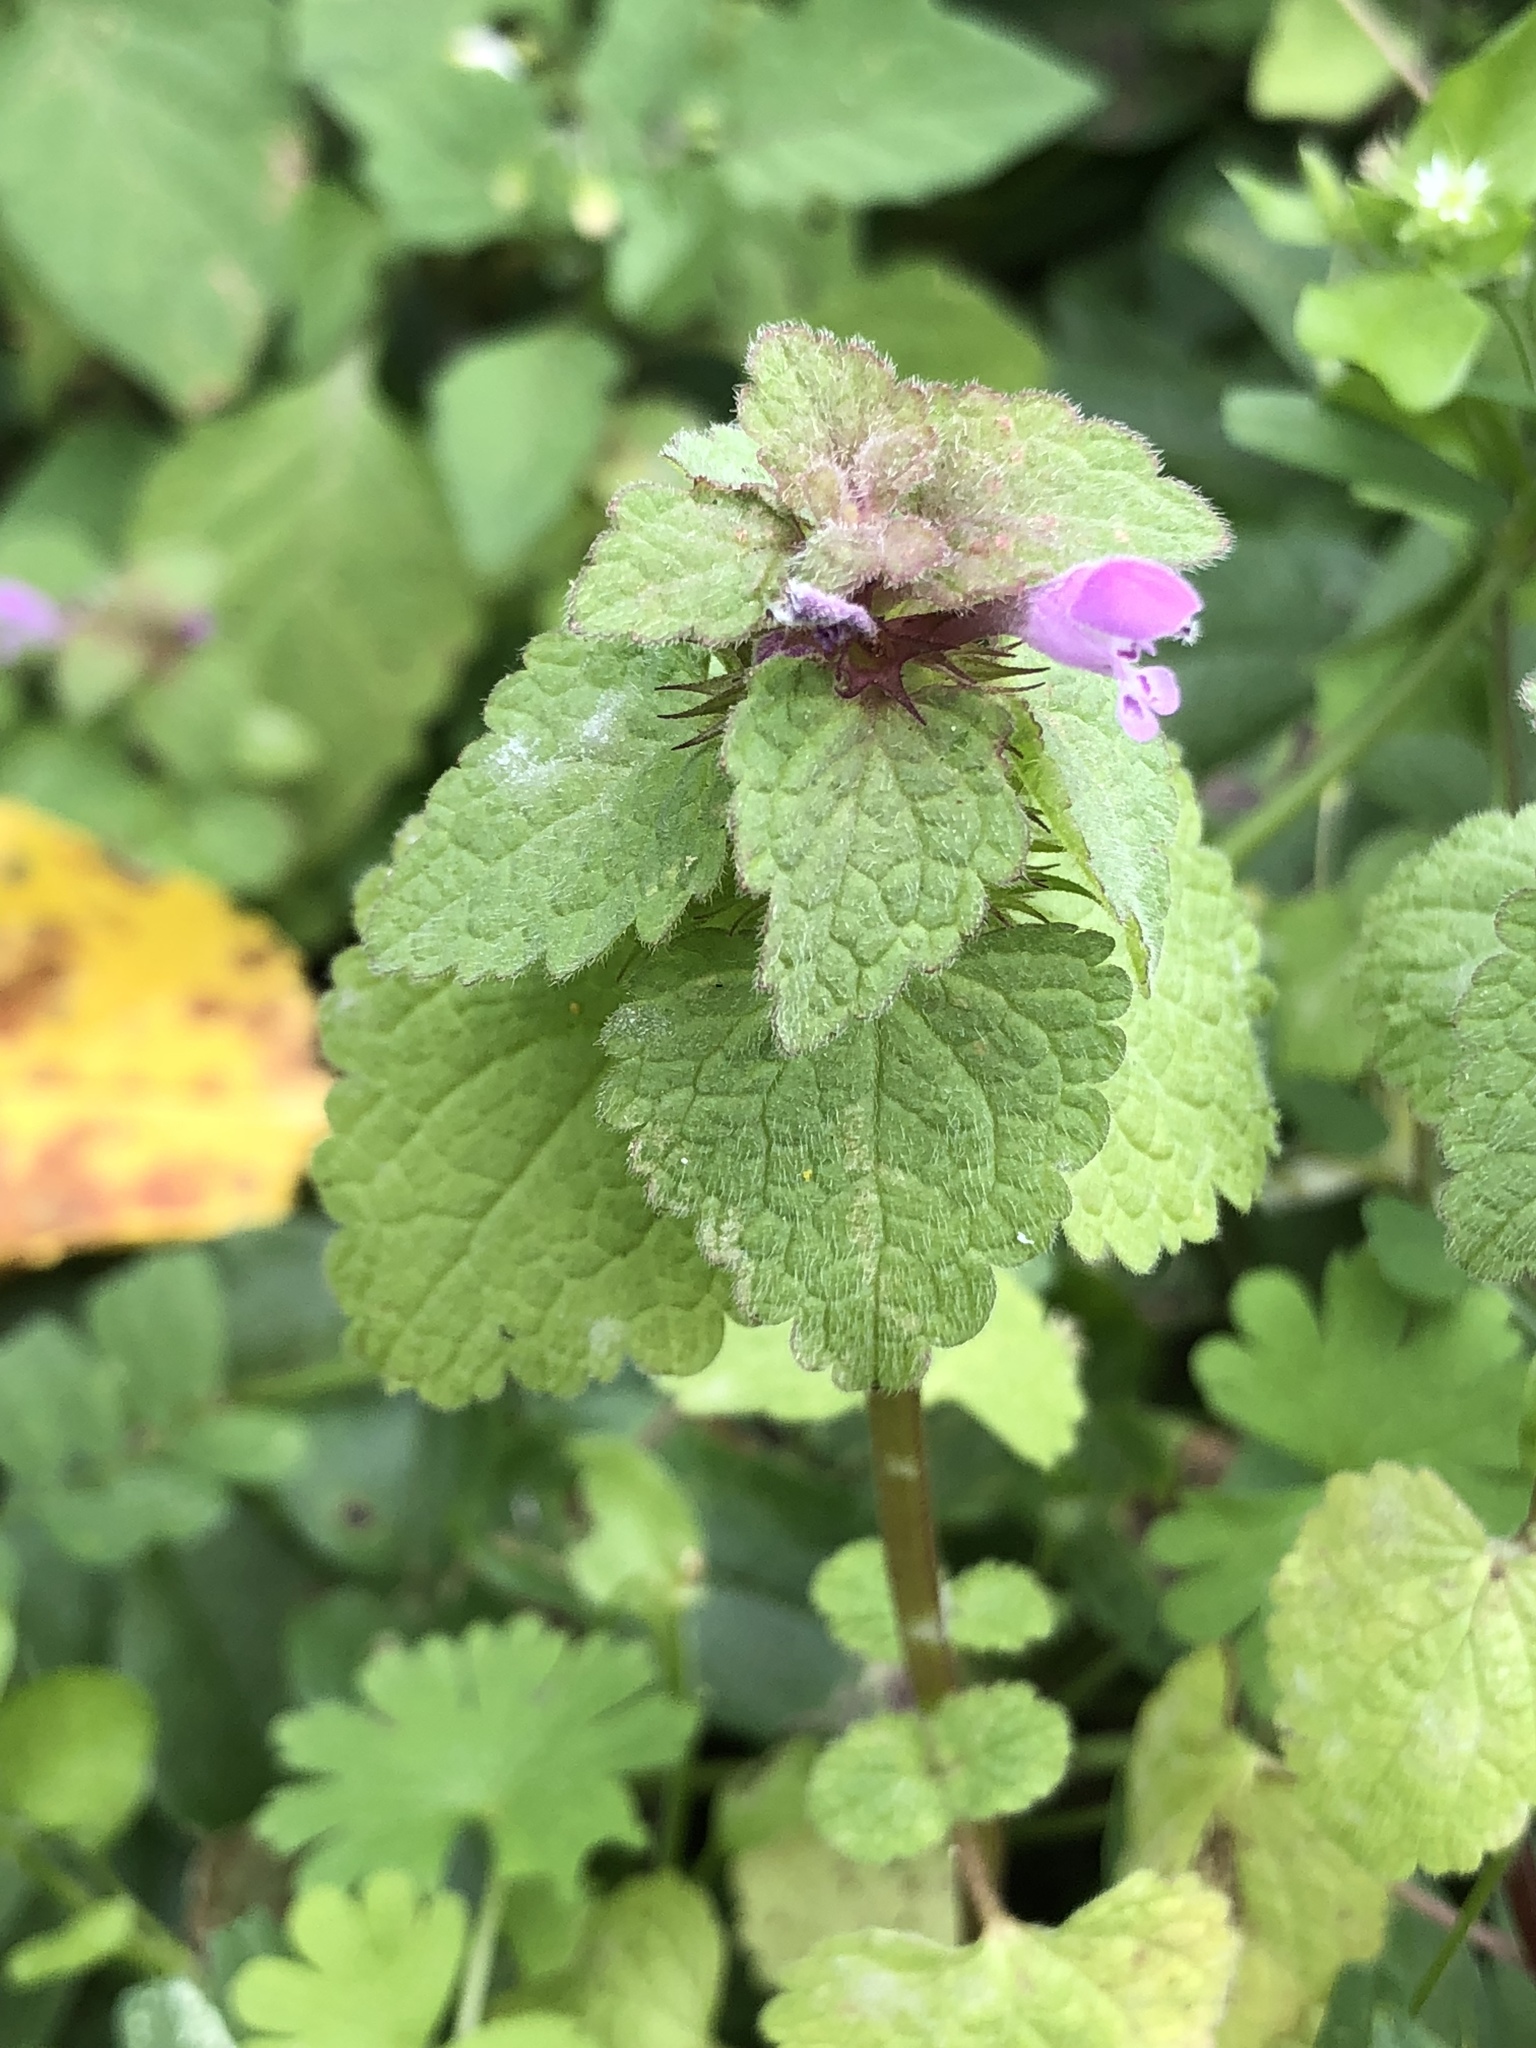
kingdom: Plantae
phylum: Tracheophyta
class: Magnoliopsida
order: Lamiales
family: Lamiaceae
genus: Lamium
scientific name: Lamium purpureum
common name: Red dead-nettle
